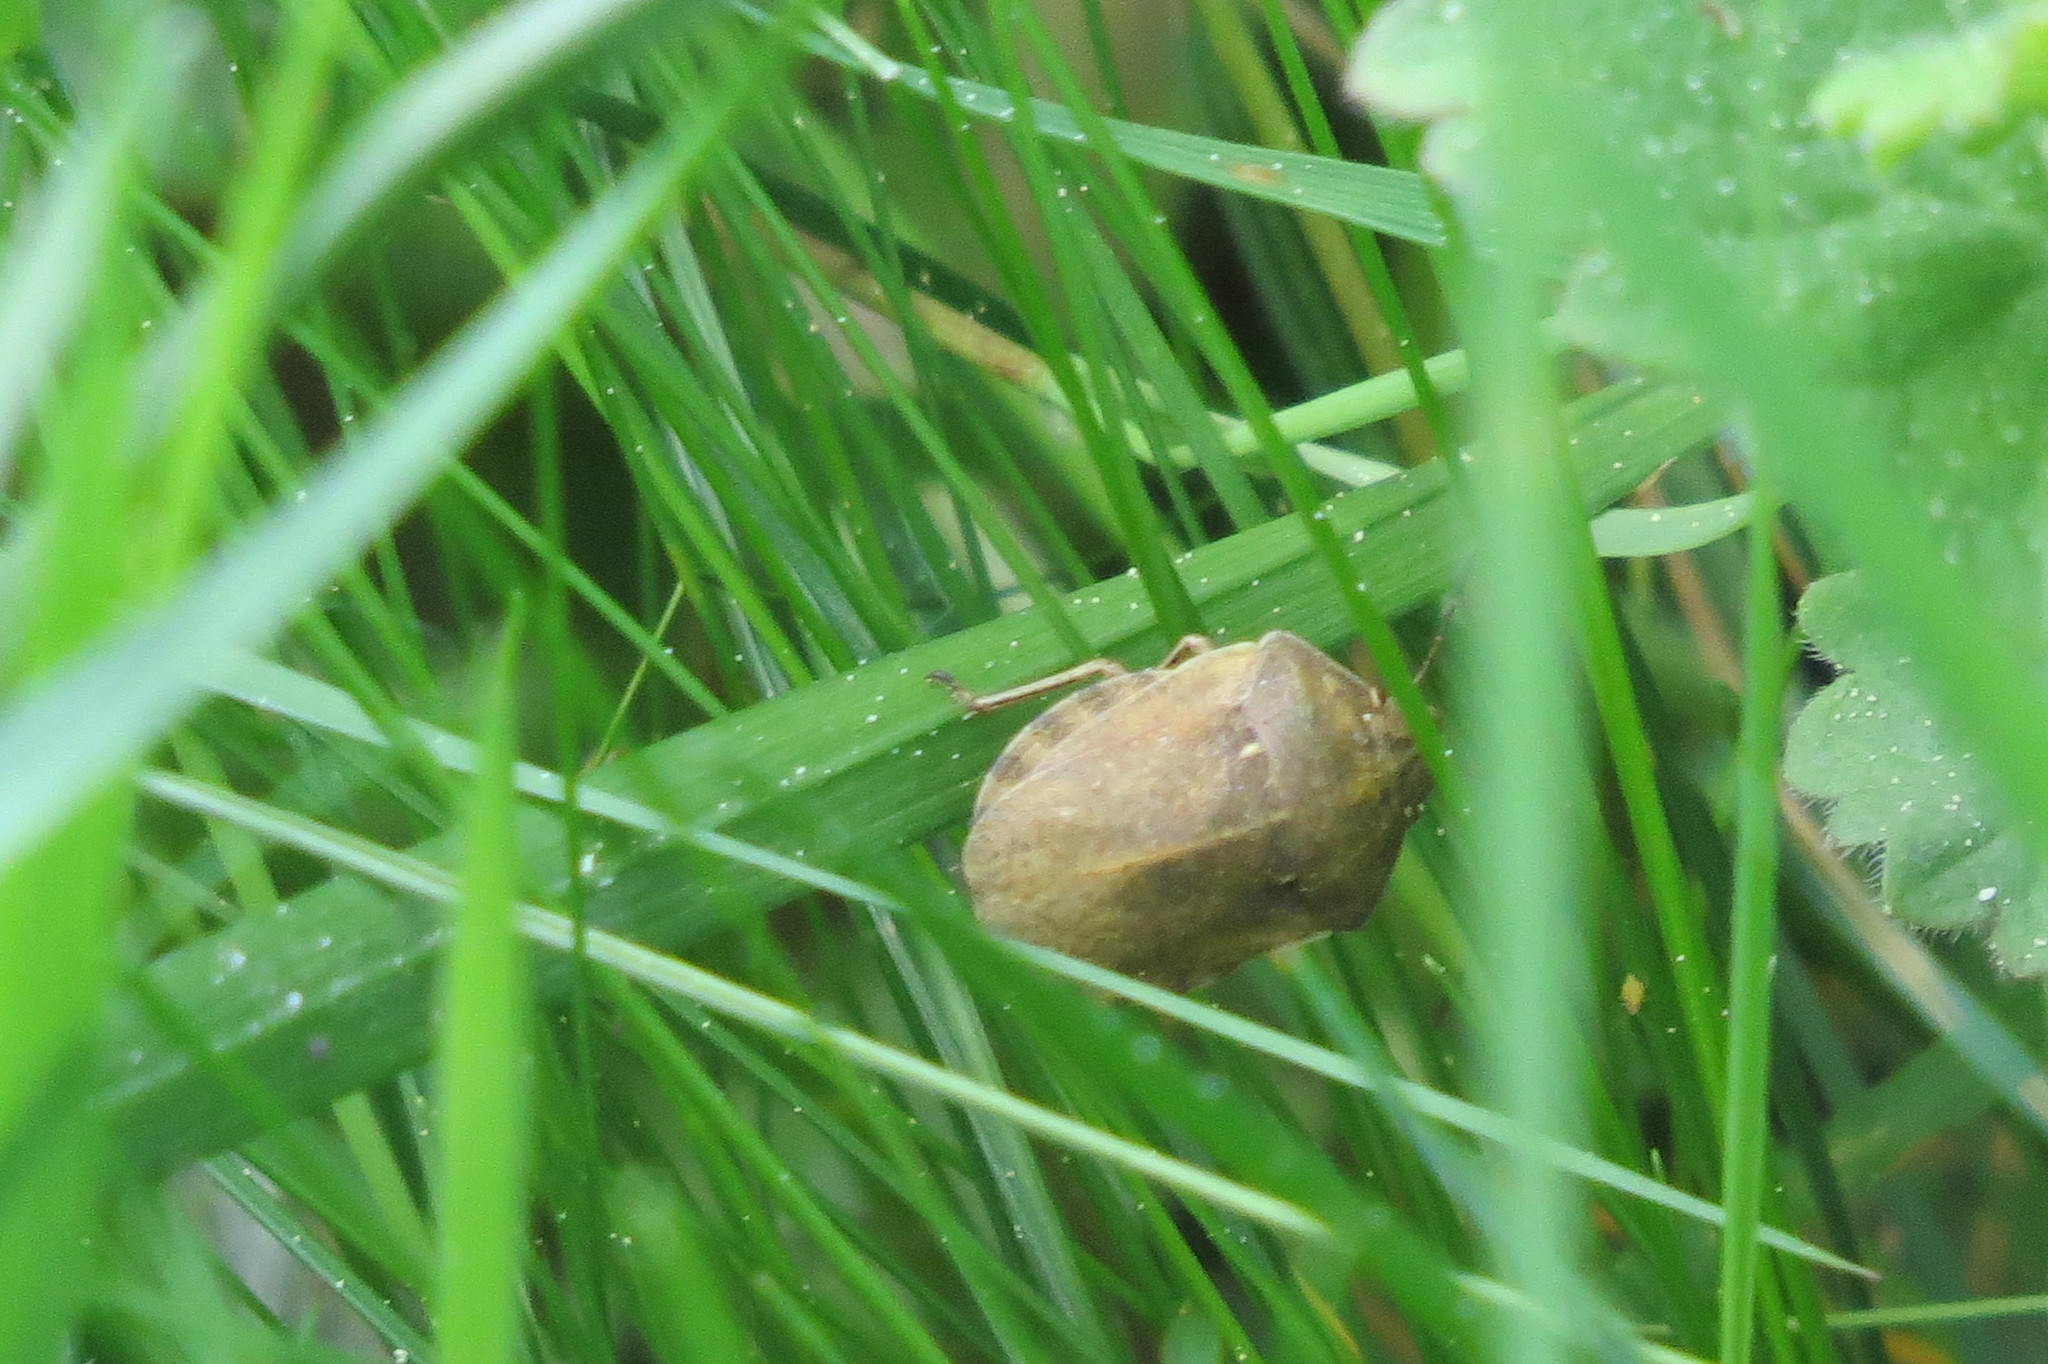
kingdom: Animalia
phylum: Arthropoda
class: Insecta
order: Hemiptera
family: Scutelleridae
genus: Eurygaster
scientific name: Eurygaster testudinaria
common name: Tortoise bug
